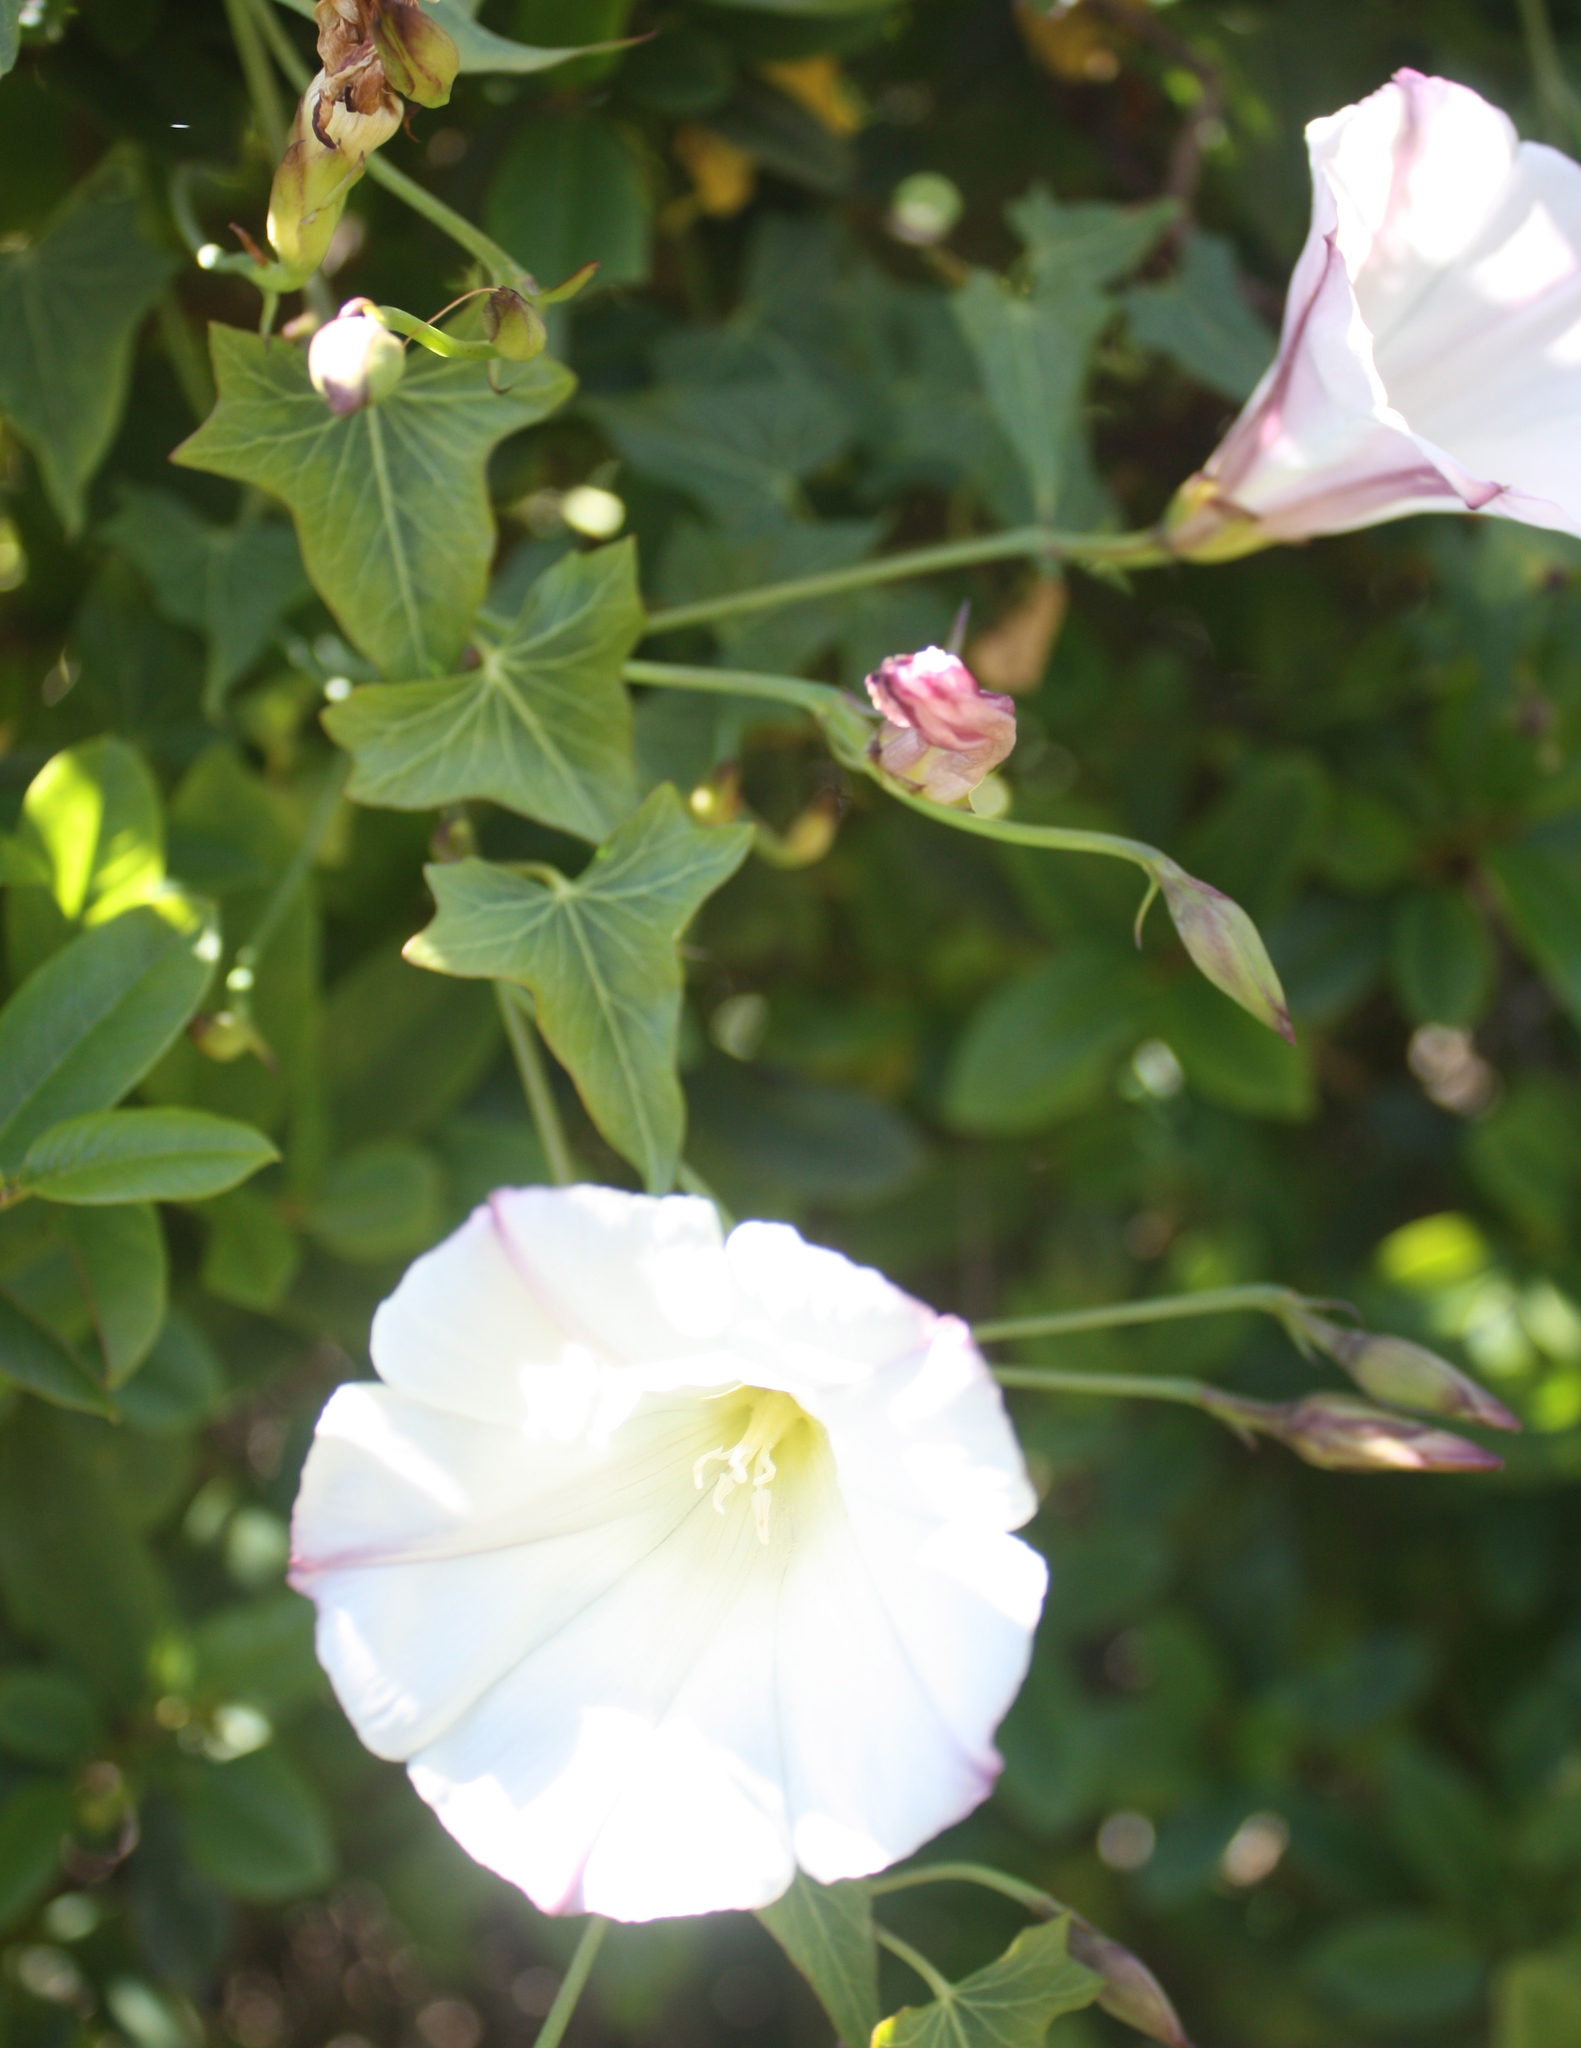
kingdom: Plantae
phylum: Tracheophyta
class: Magnoliopsida
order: Solanales
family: Convolvulaceae
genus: Calystegia
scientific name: Calystegia purpurata
